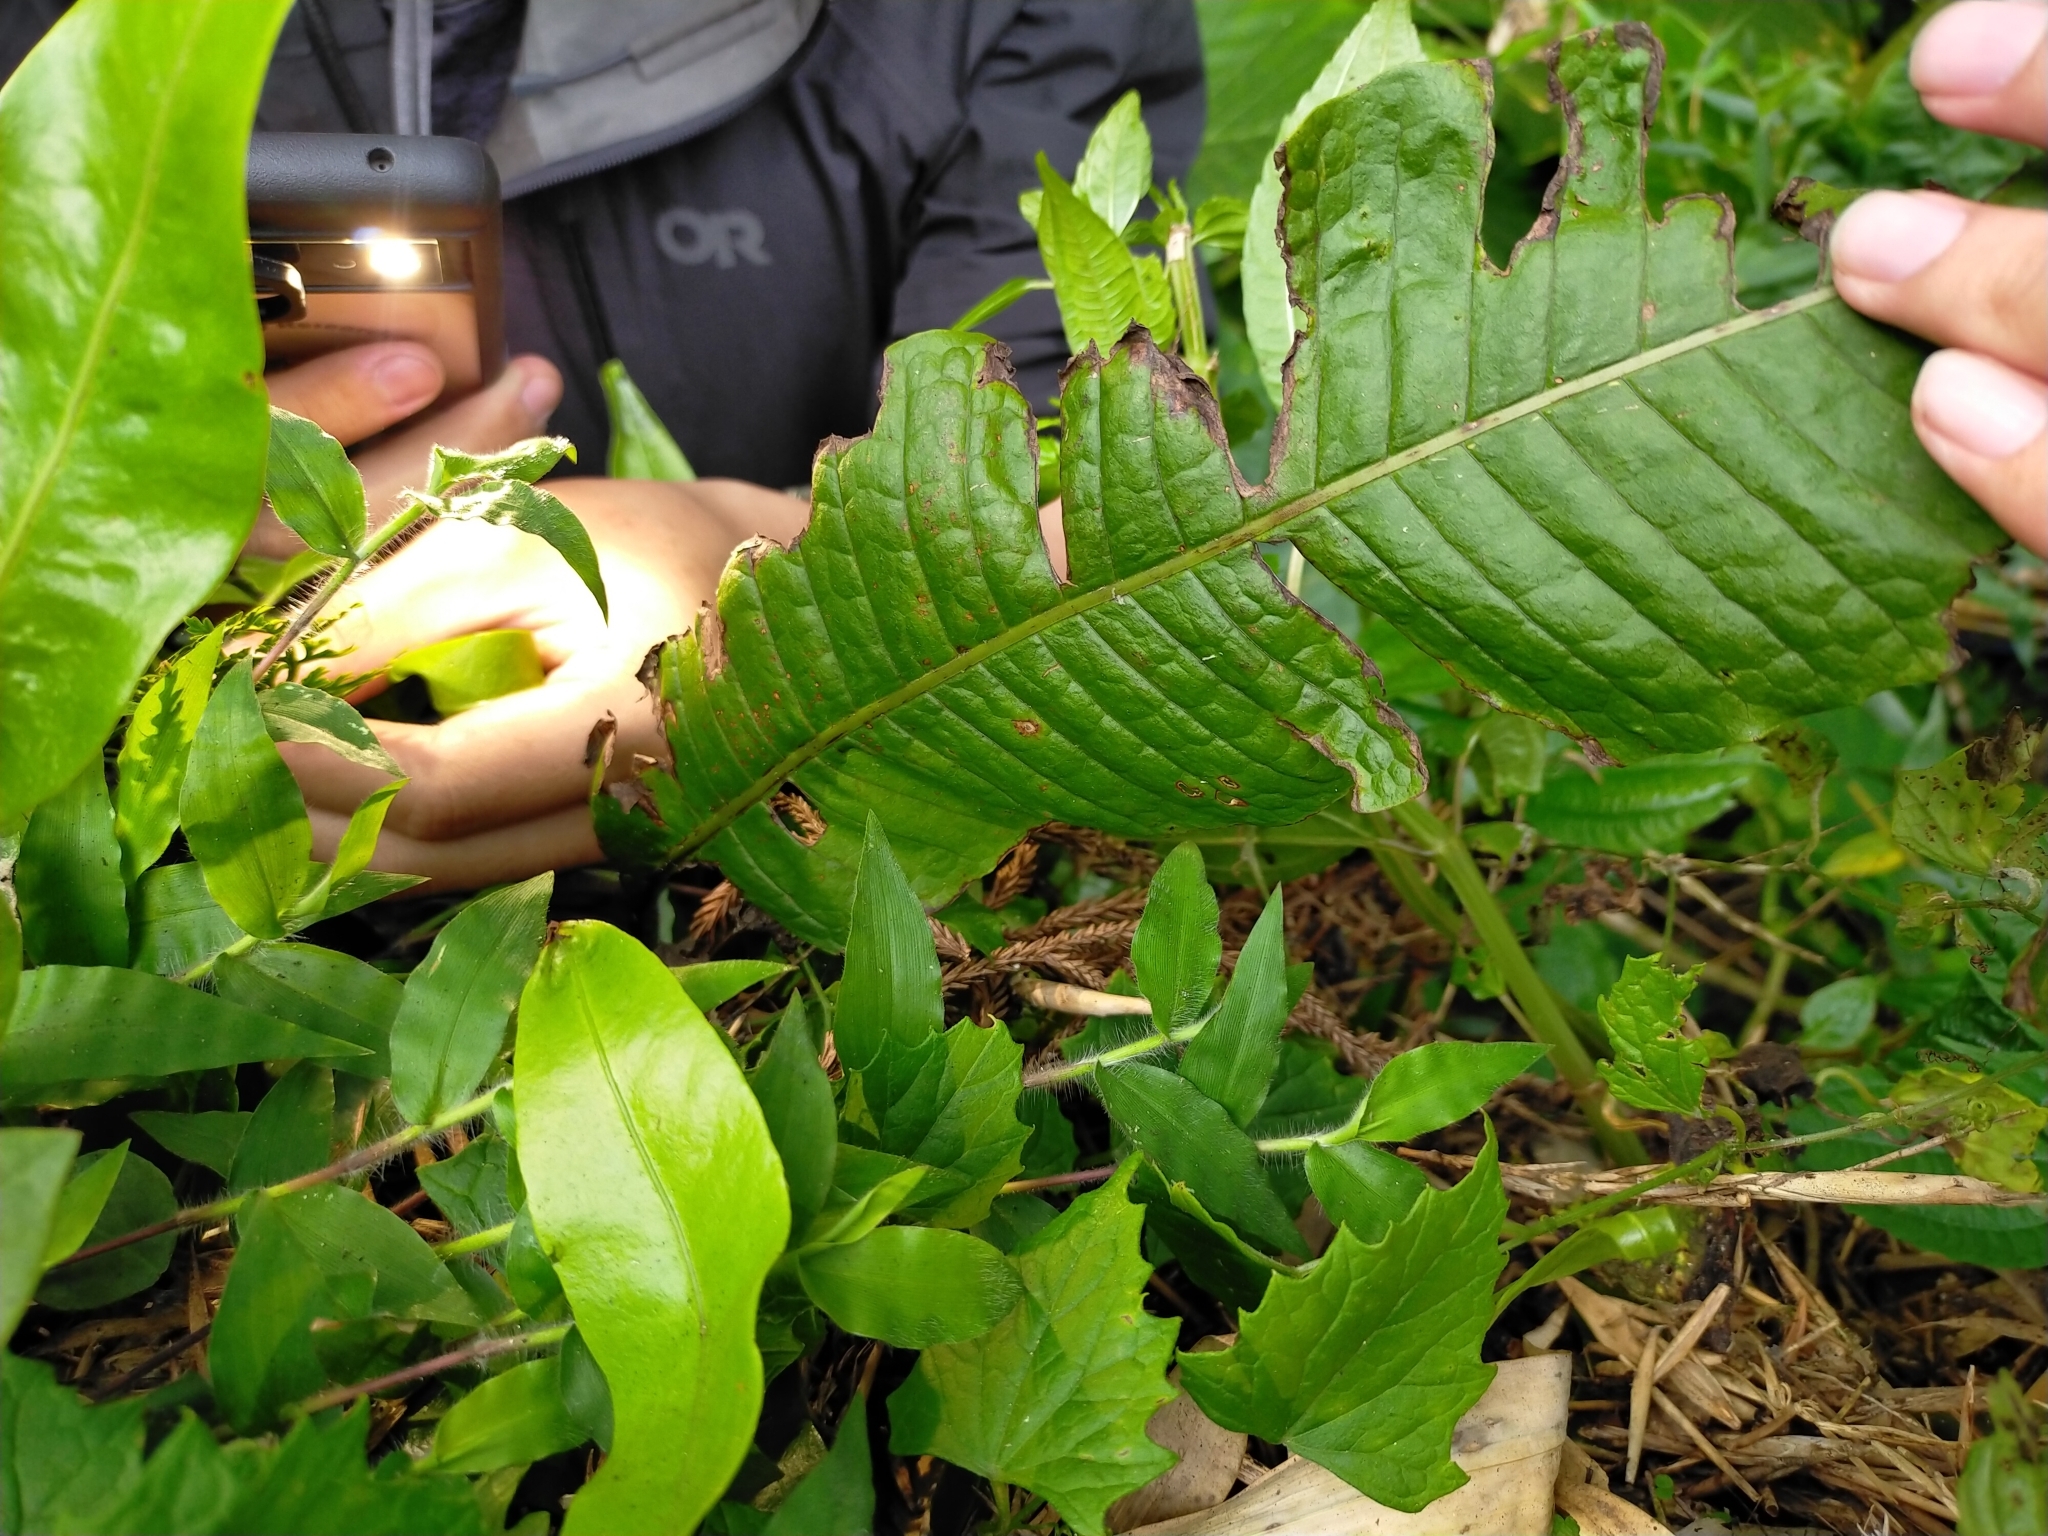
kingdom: Plantae
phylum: Tracheophyta
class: Polypodiopsida
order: Polypodiales
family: Polypodiaceae
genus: Bosmania
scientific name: Bosmania membranacea
